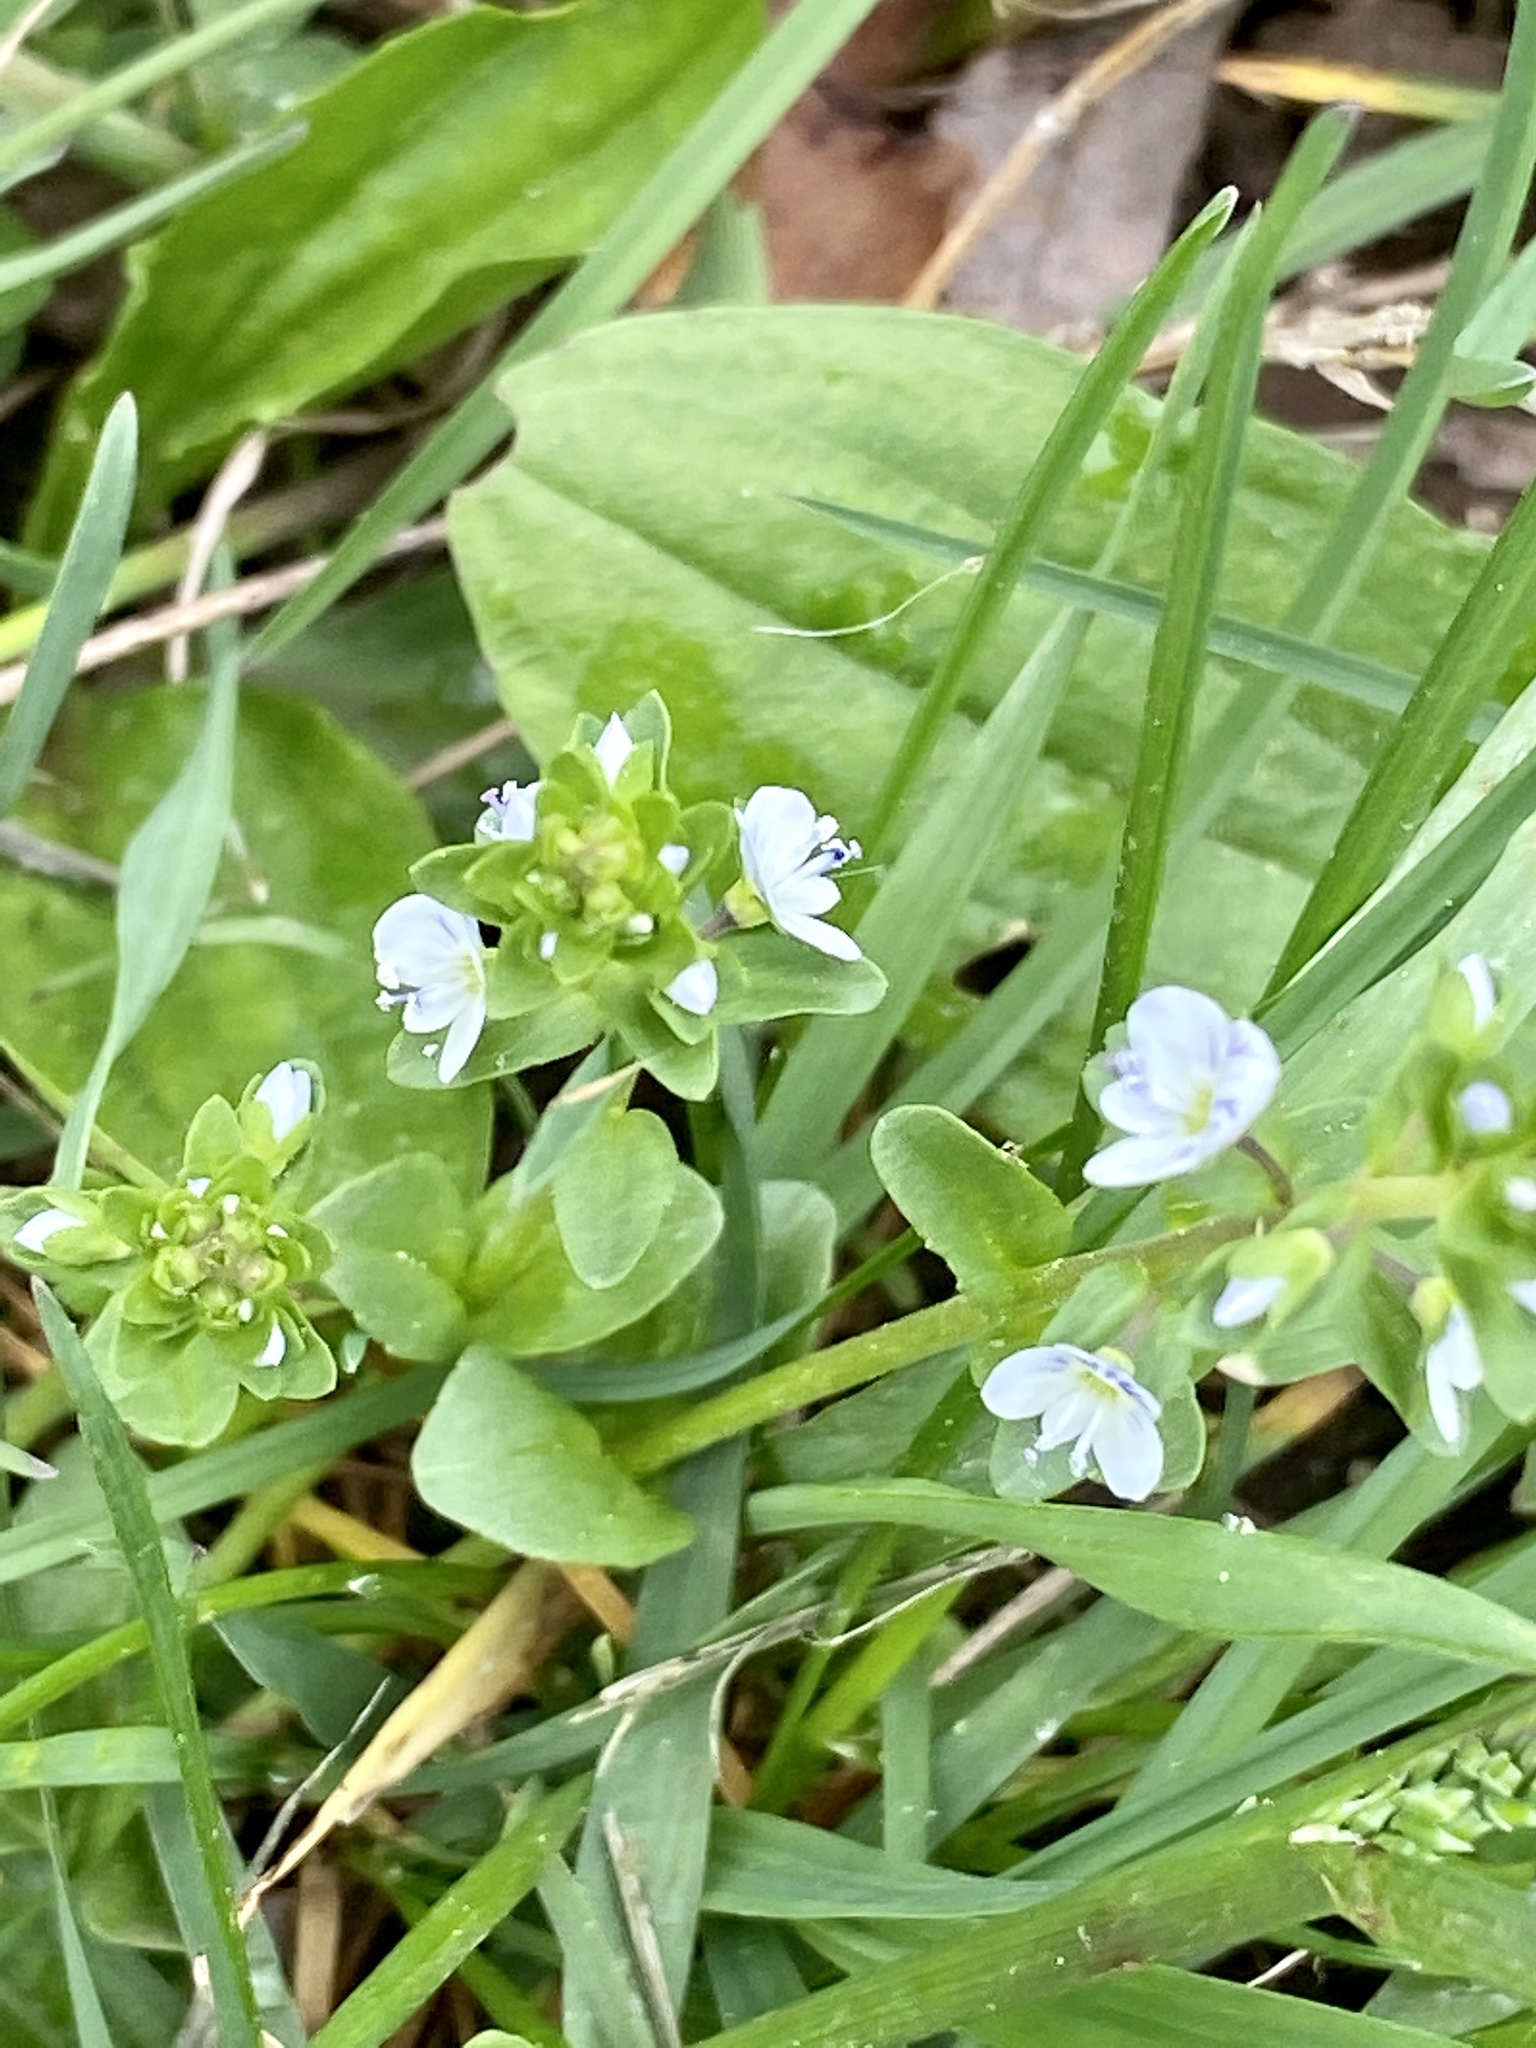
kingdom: Plantae
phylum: Tracheophyta
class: Magnoliopsida
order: Lamiales
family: Plantaginaceae
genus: Veronica
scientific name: Veronica serpyllifolia
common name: Thyme-leaved speedwell
